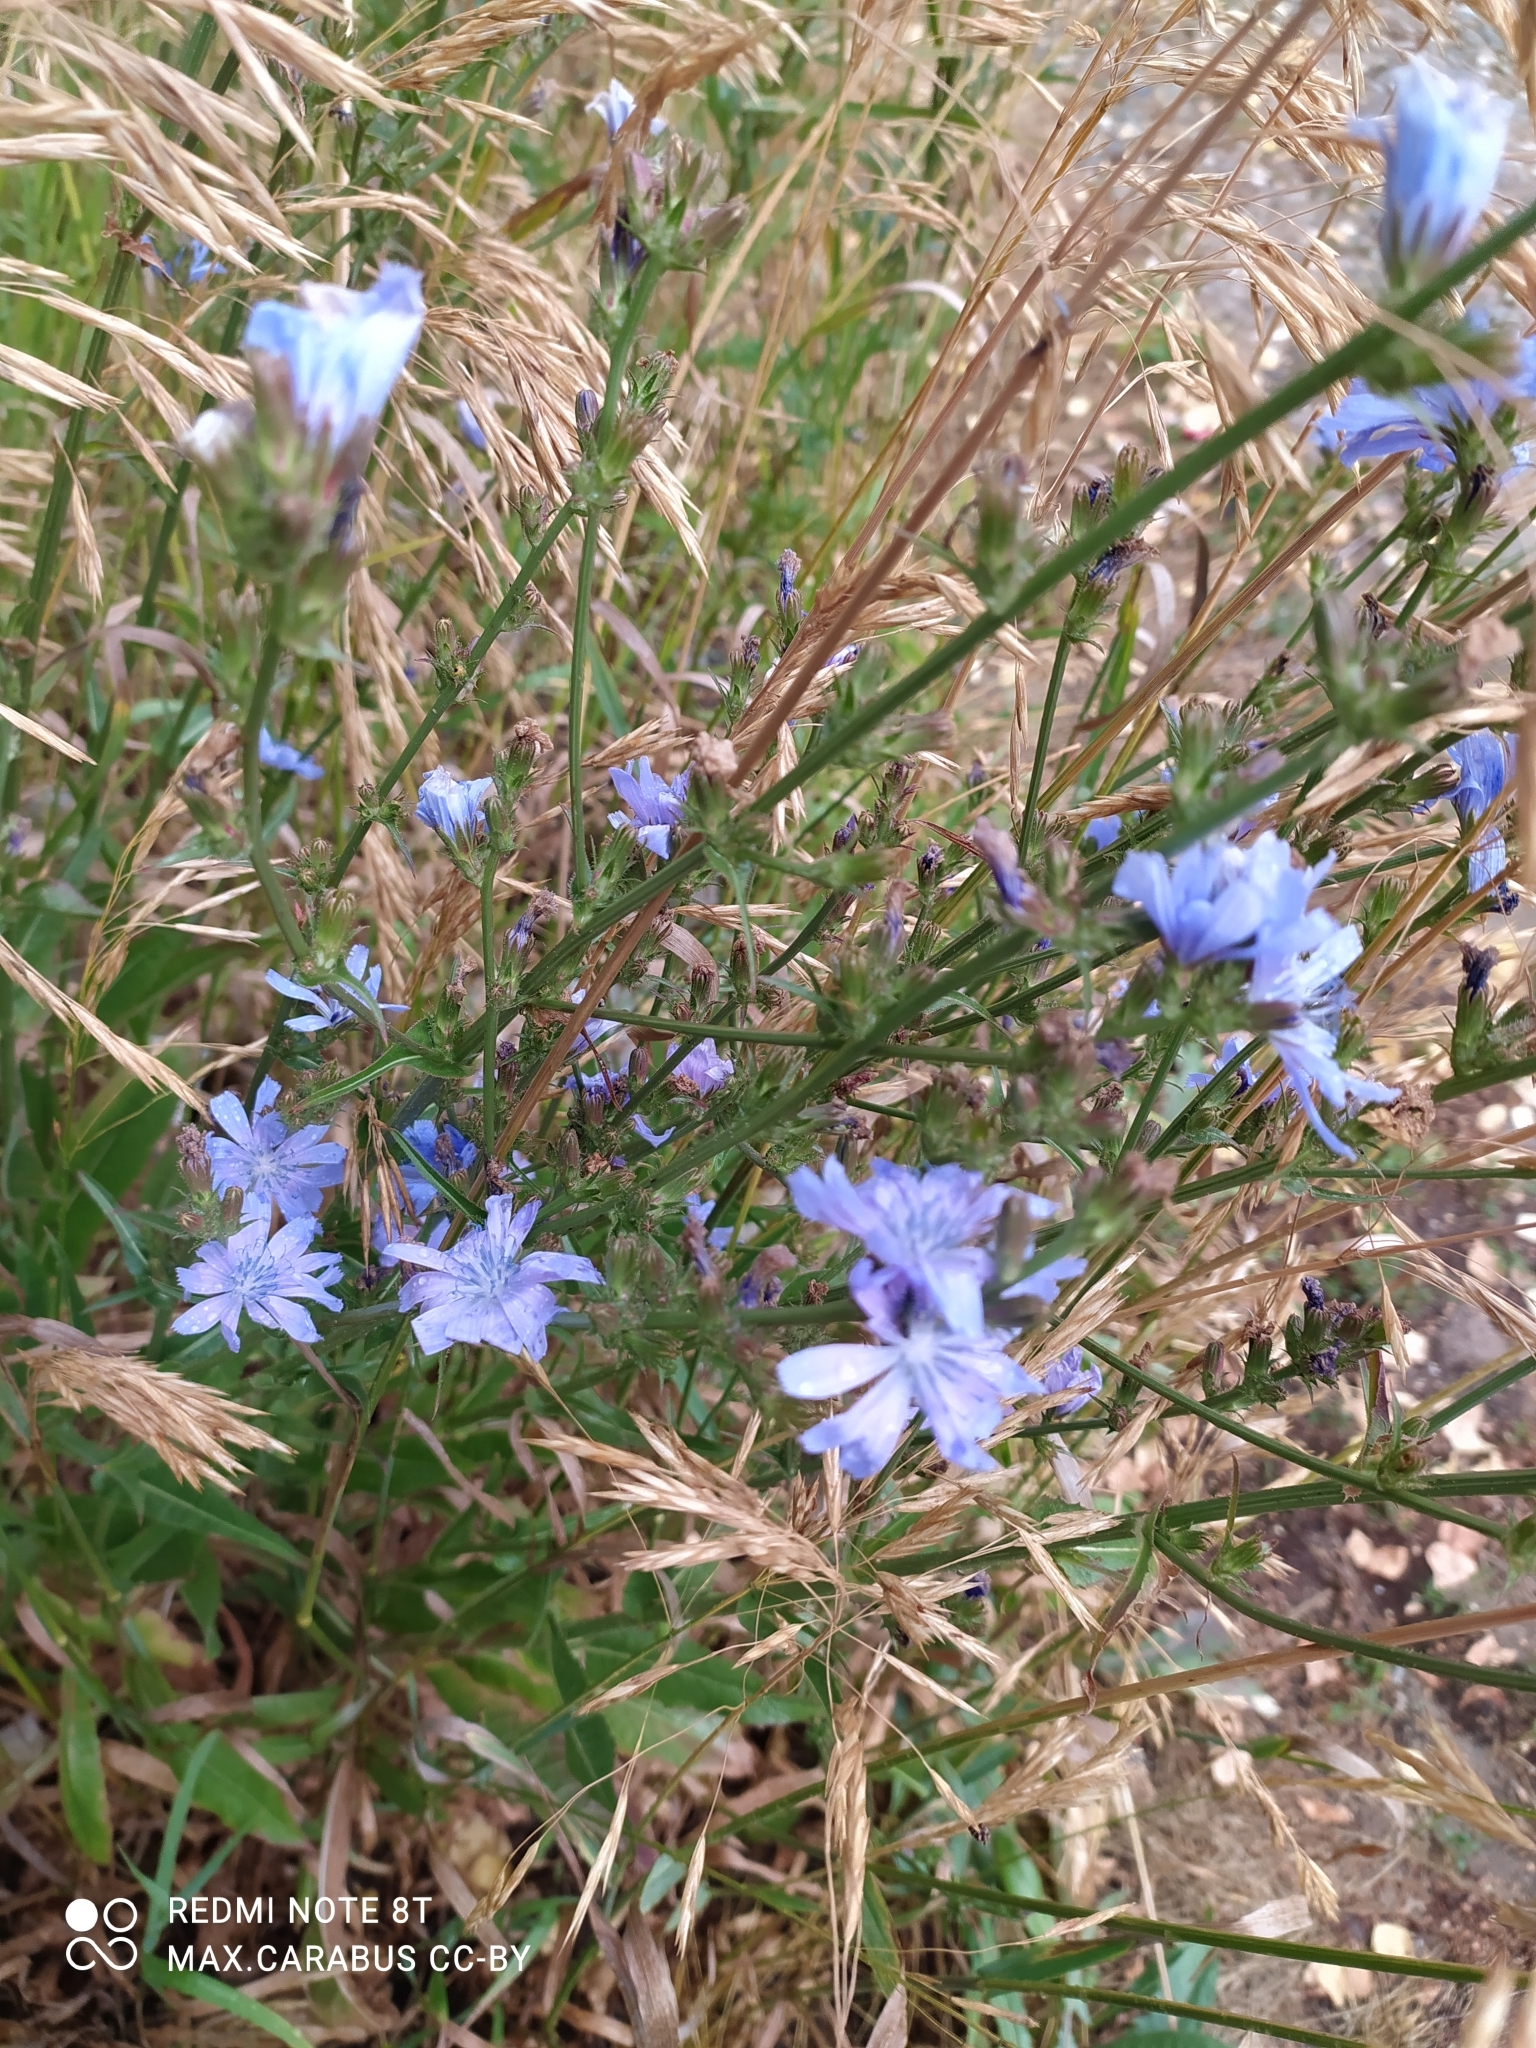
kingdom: Plantae
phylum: Tracheophyta
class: Magnoliopsida
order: Asterales
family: Asteraceae
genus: Cichorium
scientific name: Cichorium intybus
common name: Chicory
